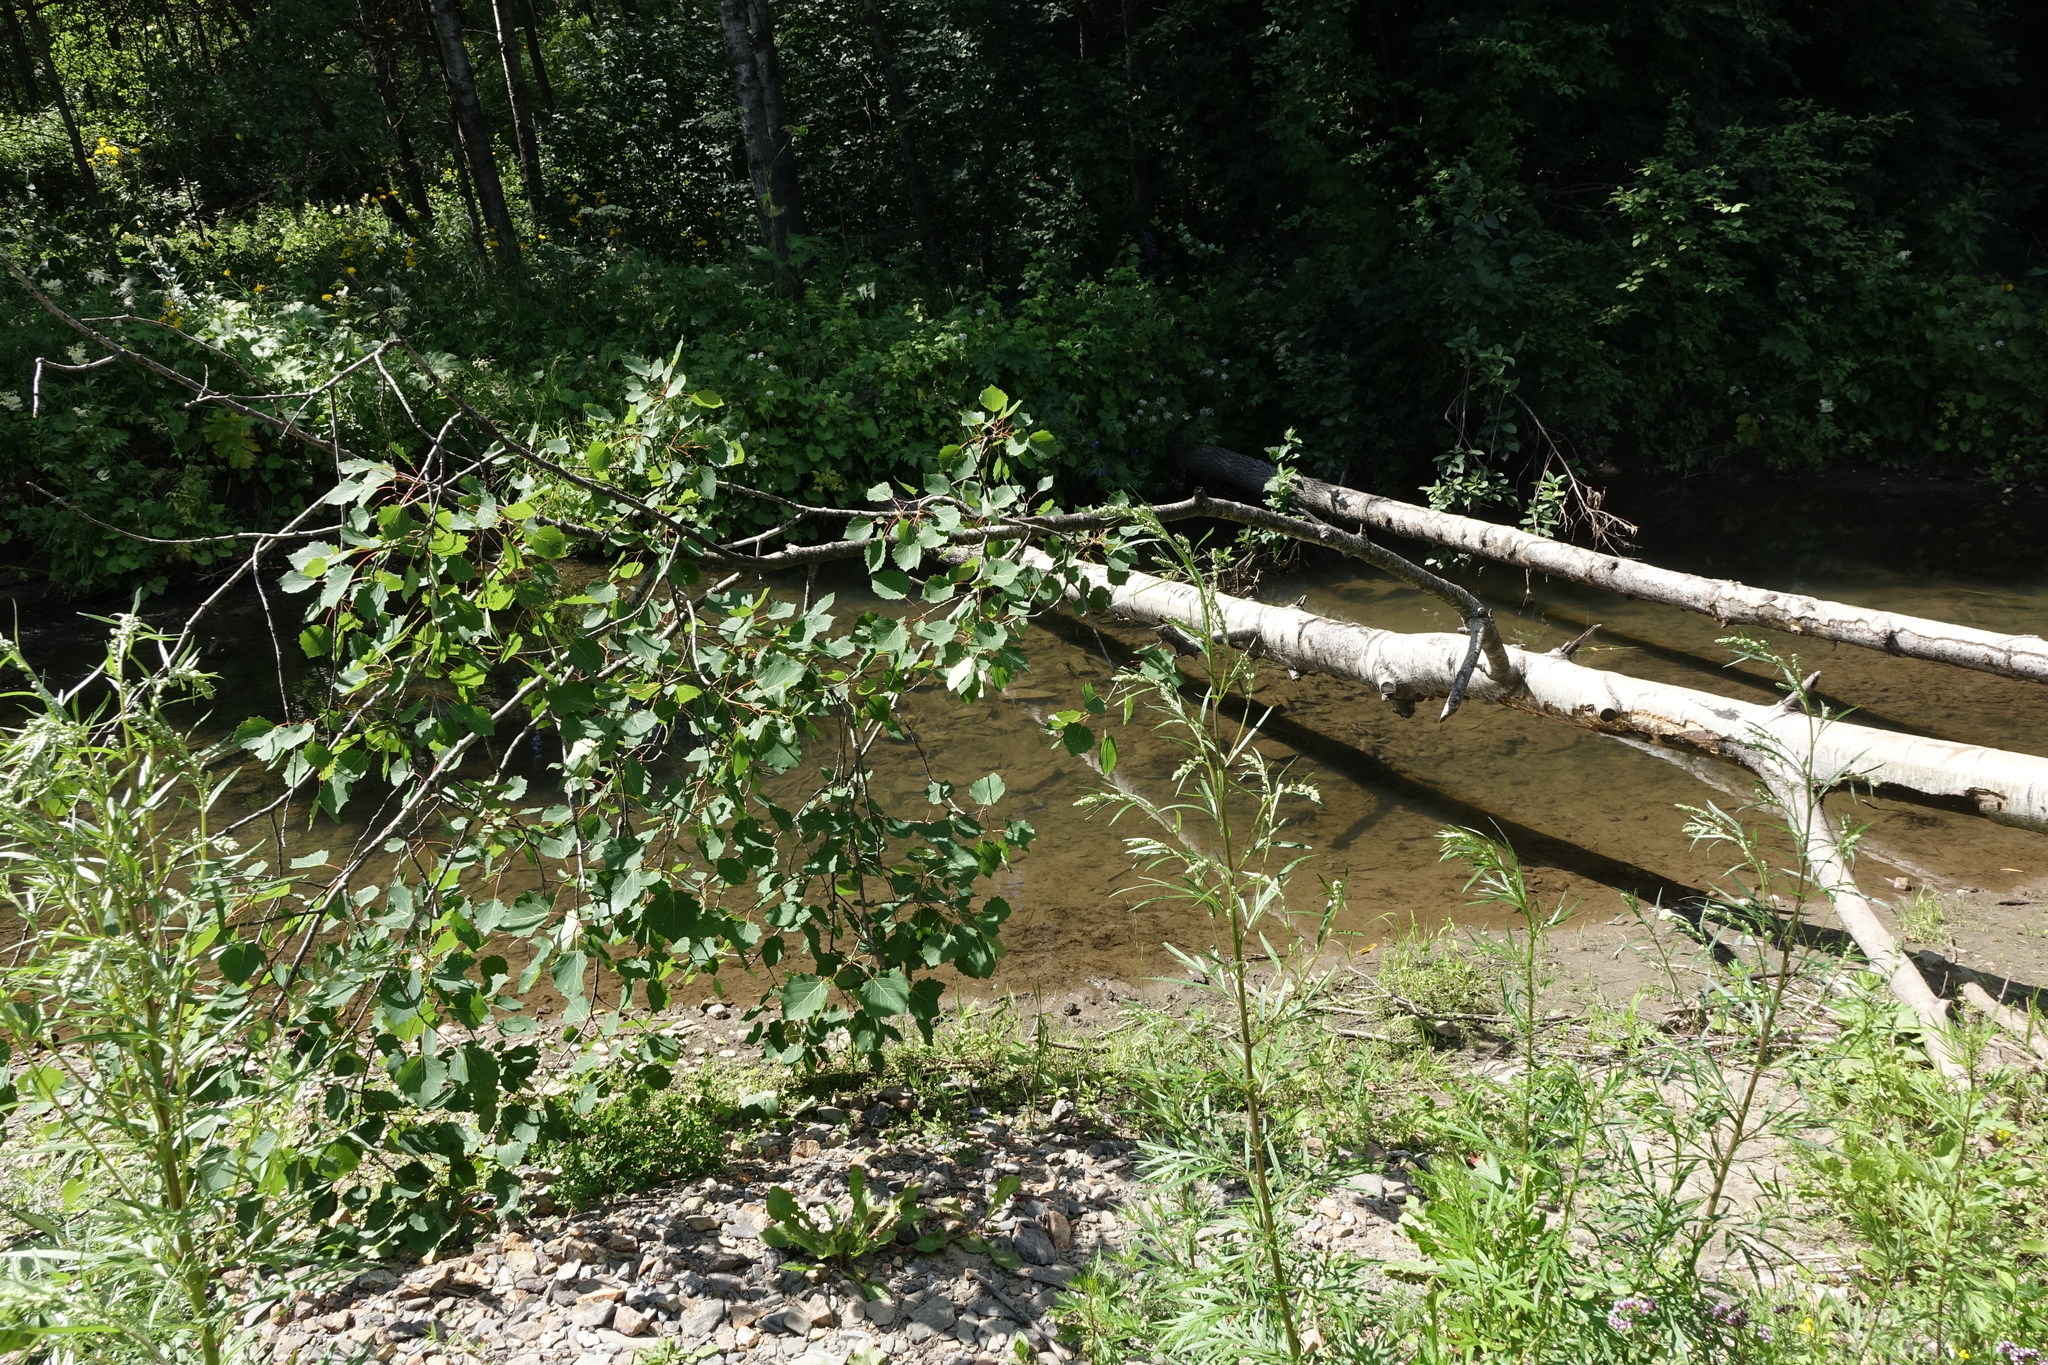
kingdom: Plantae
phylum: Tracheophyta
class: Magnoliopsida
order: Malpighiales
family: Salicaceae
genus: Populus
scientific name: Populus tremula
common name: European aspen
